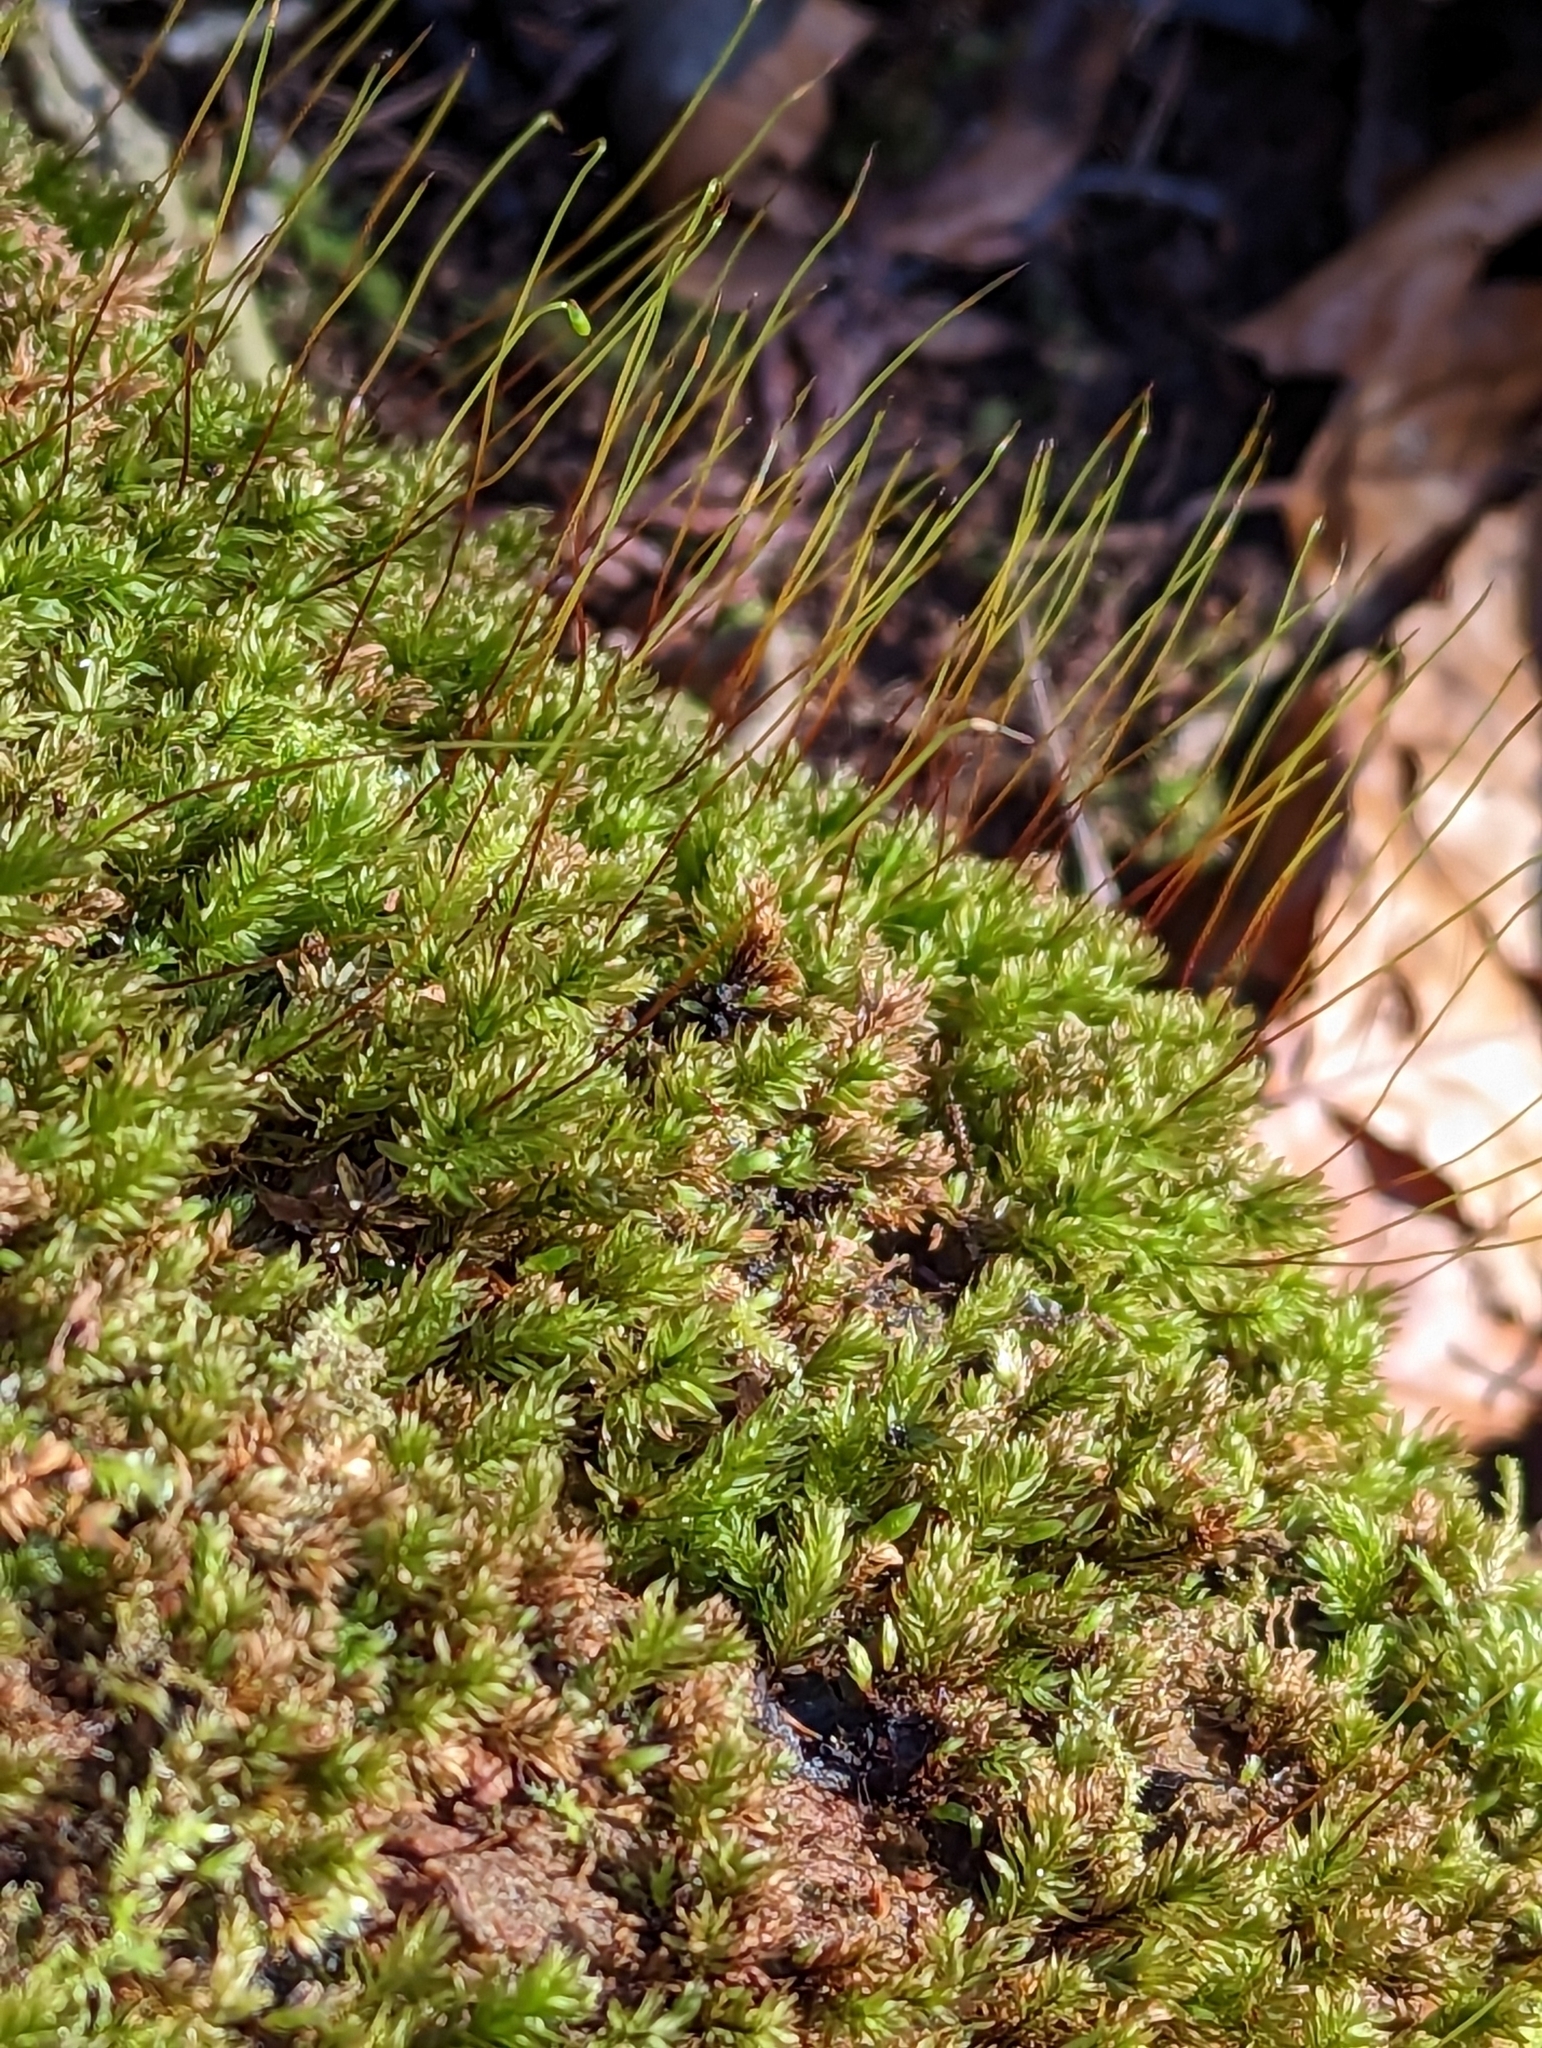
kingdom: Plantae
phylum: Bryophyta
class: Bryopsida
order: Bryales
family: Mniaceae
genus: Mnium
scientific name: Mnium hornum
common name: Swan's-neck leafy moss
